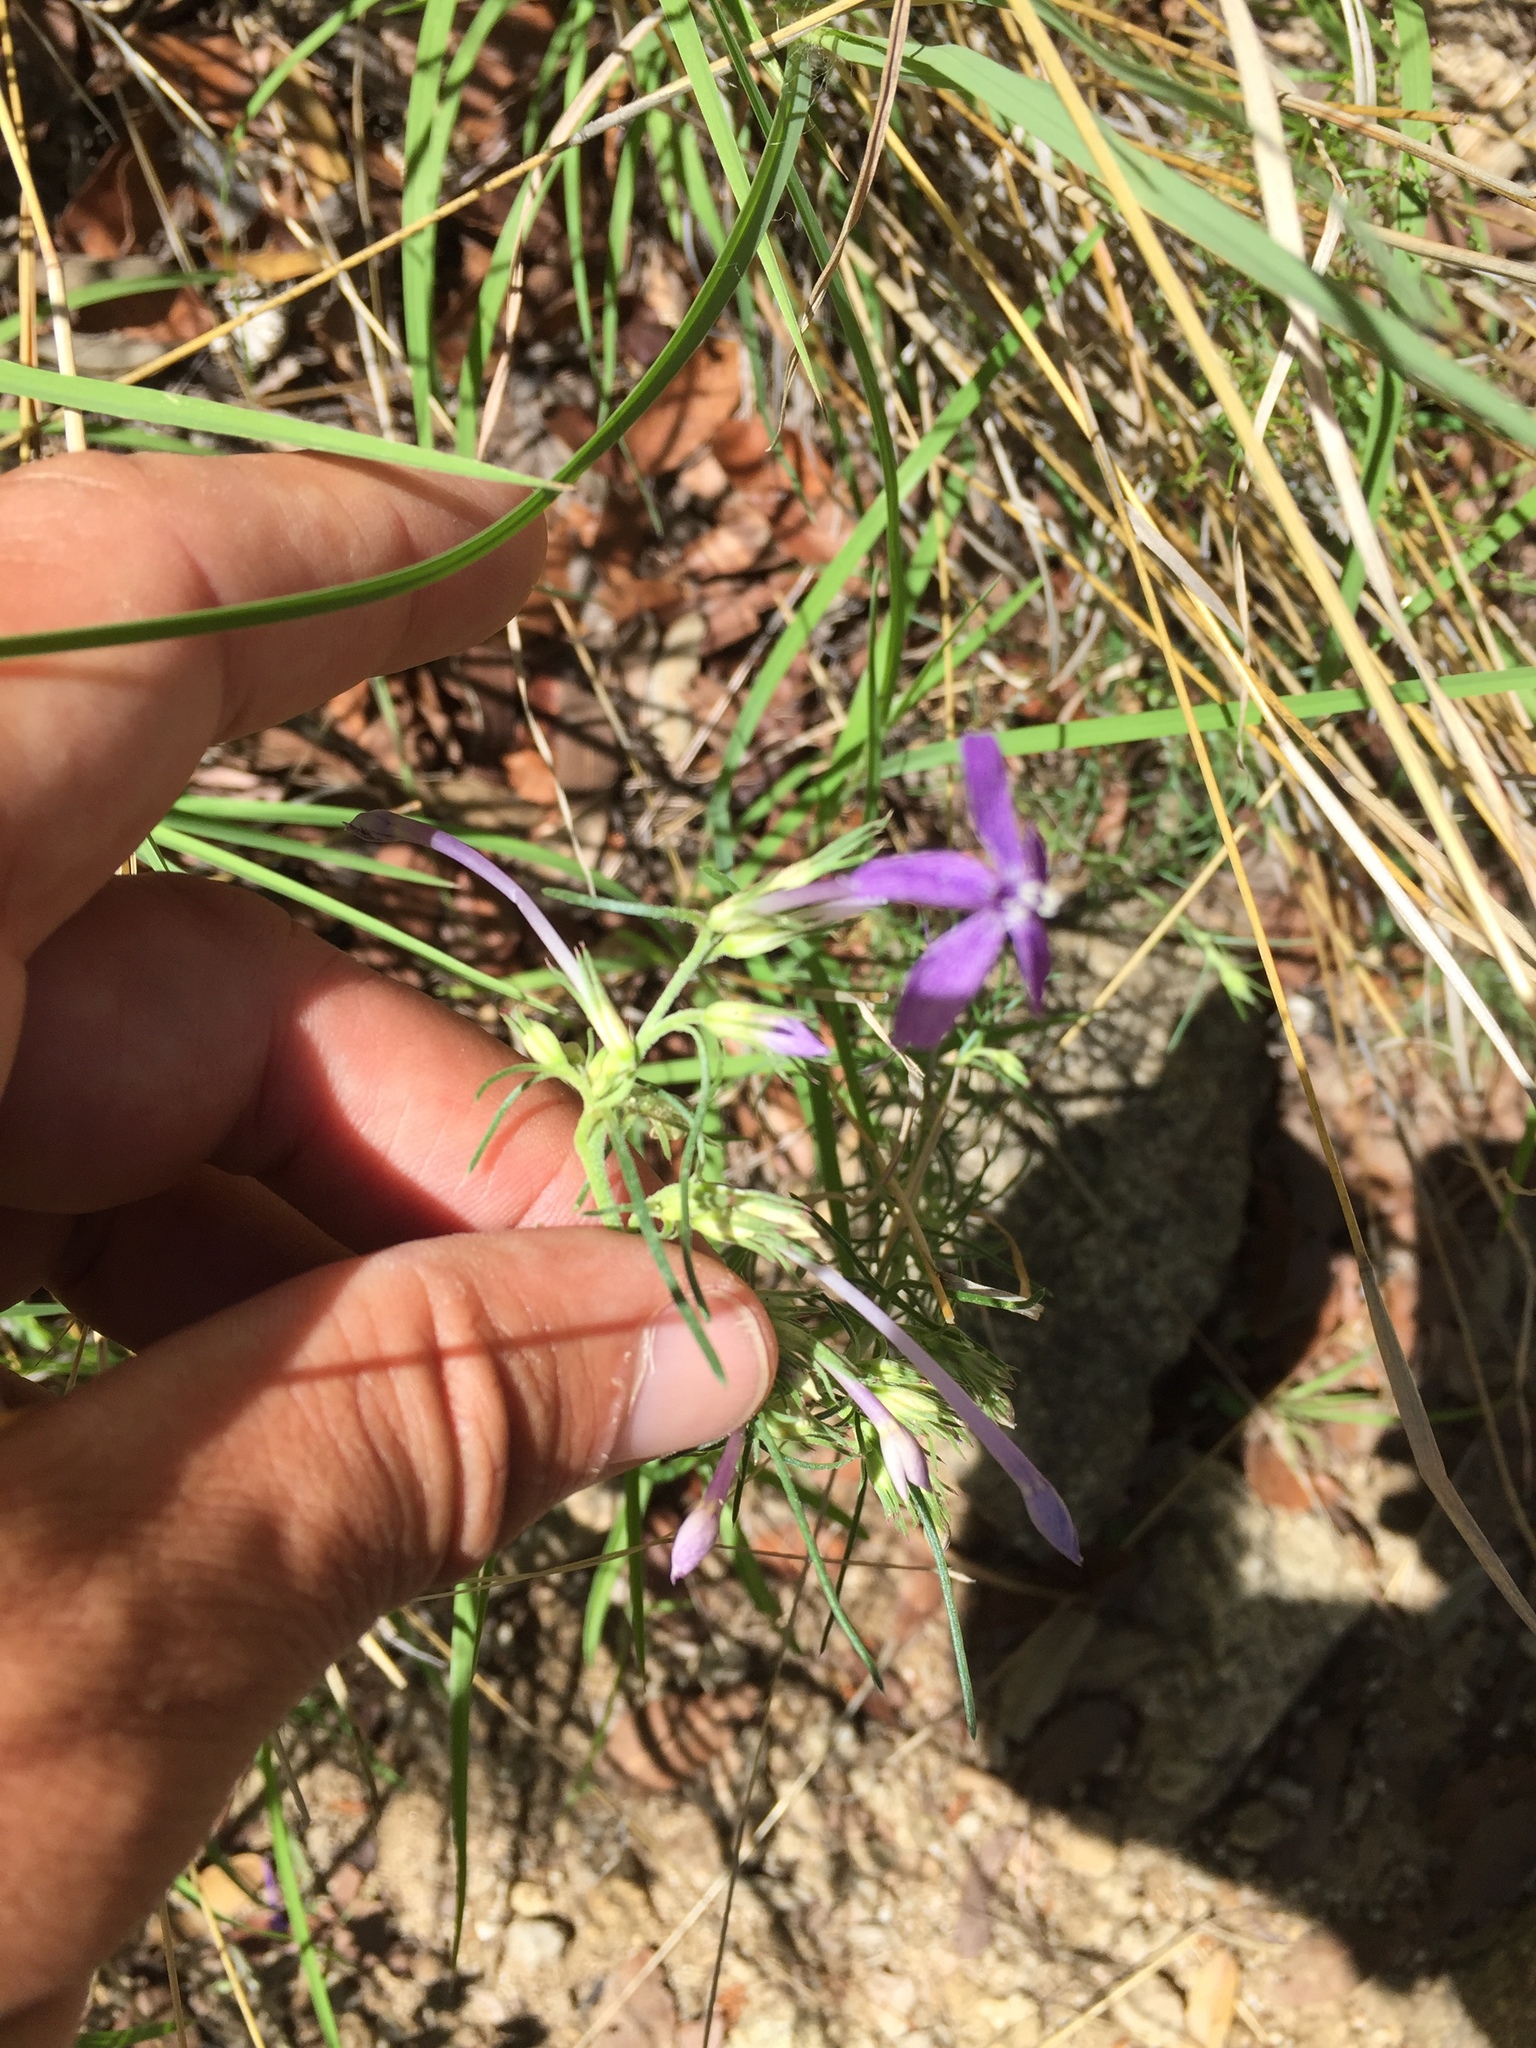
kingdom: Plantae
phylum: Tracheophyta
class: Magnoliopsida
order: Ericales
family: Polemoniaceae
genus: Ipomopsis
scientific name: Ipomopsis thurberi
